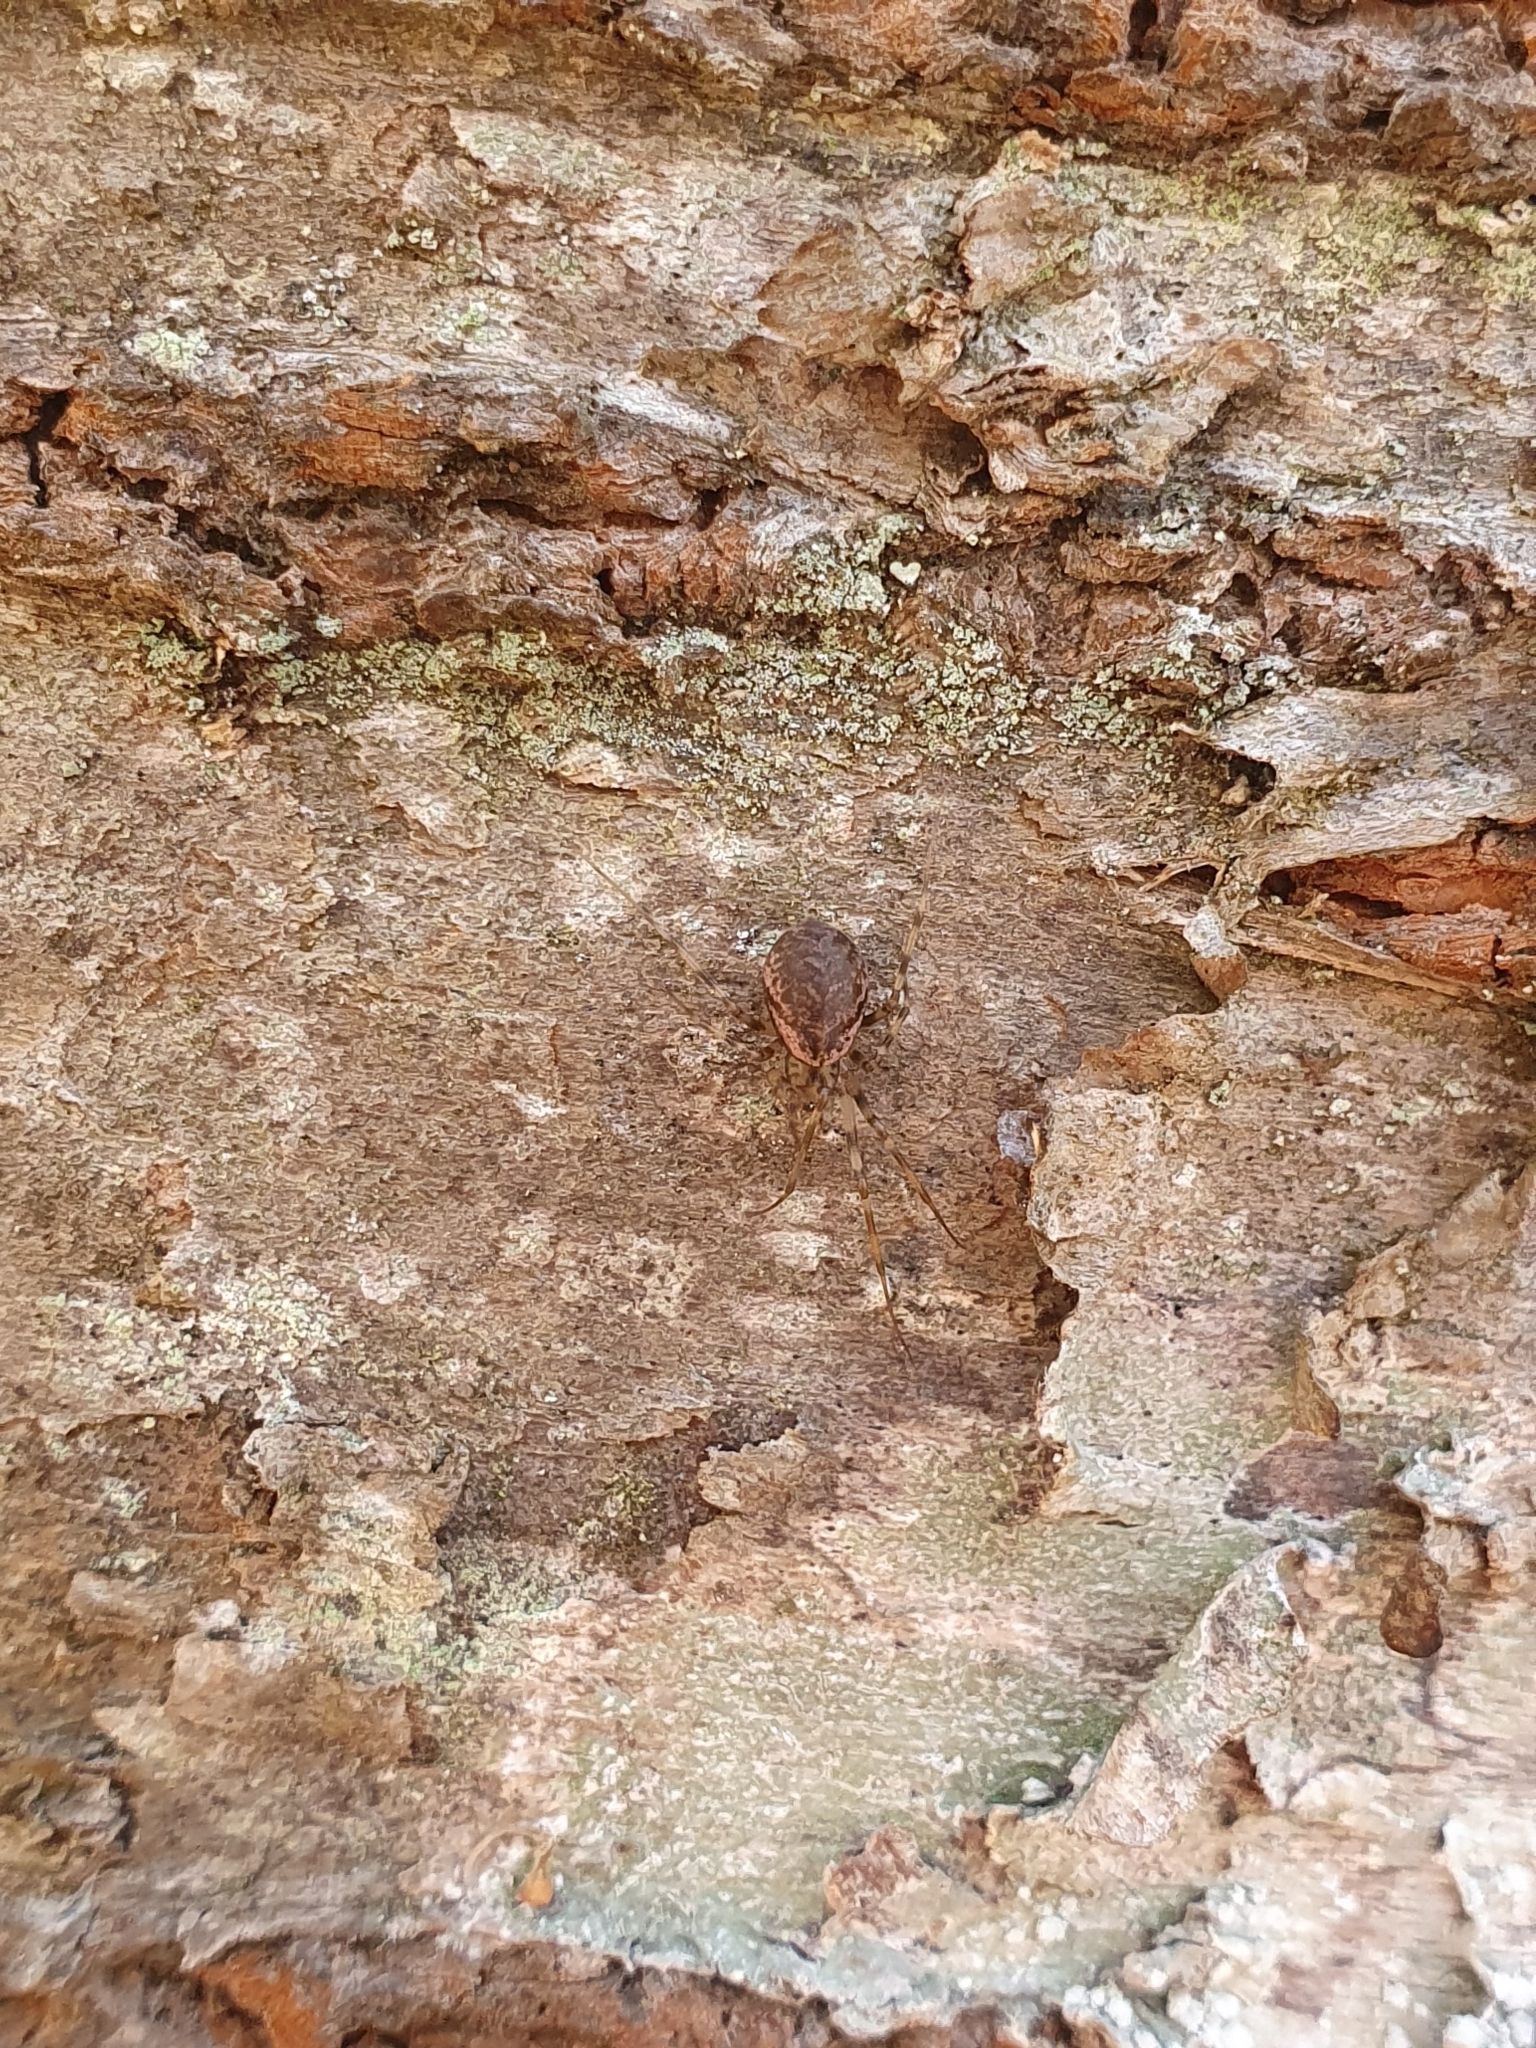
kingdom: Animalia
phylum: Arthropoda
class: Arachnida
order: Araneae
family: Linyphiidae
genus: Drapetisca
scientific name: Drapetisca socialis
